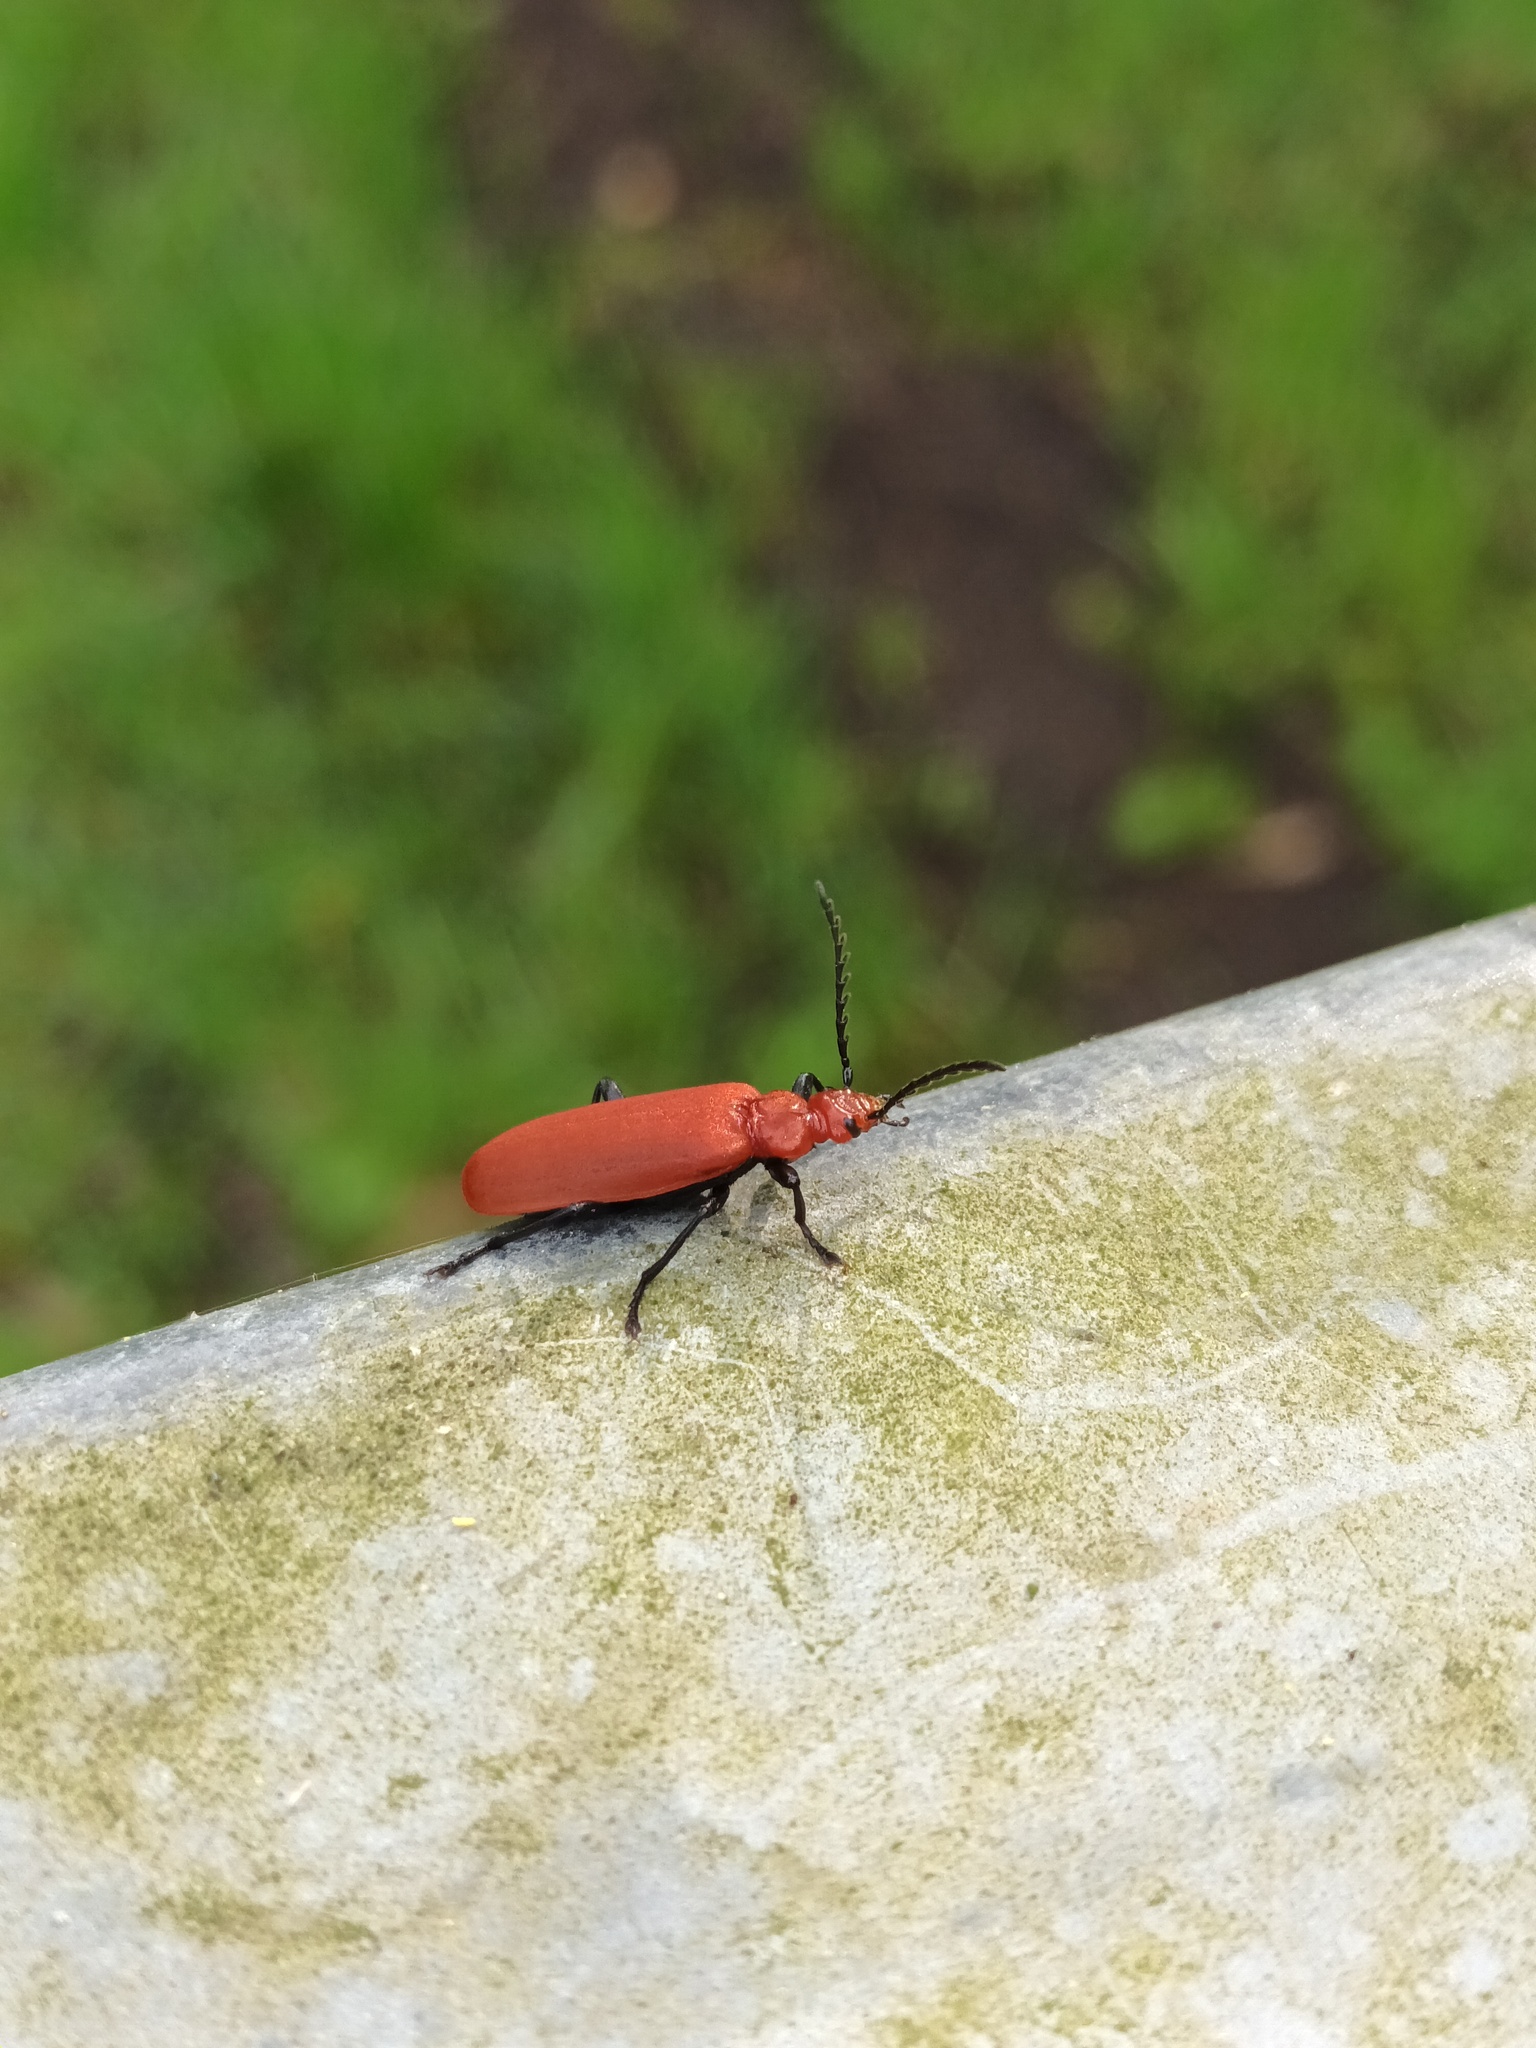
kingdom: Animalia
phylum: Arthropoda
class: Insecta
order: Coleoptera
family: Pyrochroidae
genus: Pyrochroa
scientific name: Pyrochroa serraticornis
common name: Red-headed cardinal beetle
